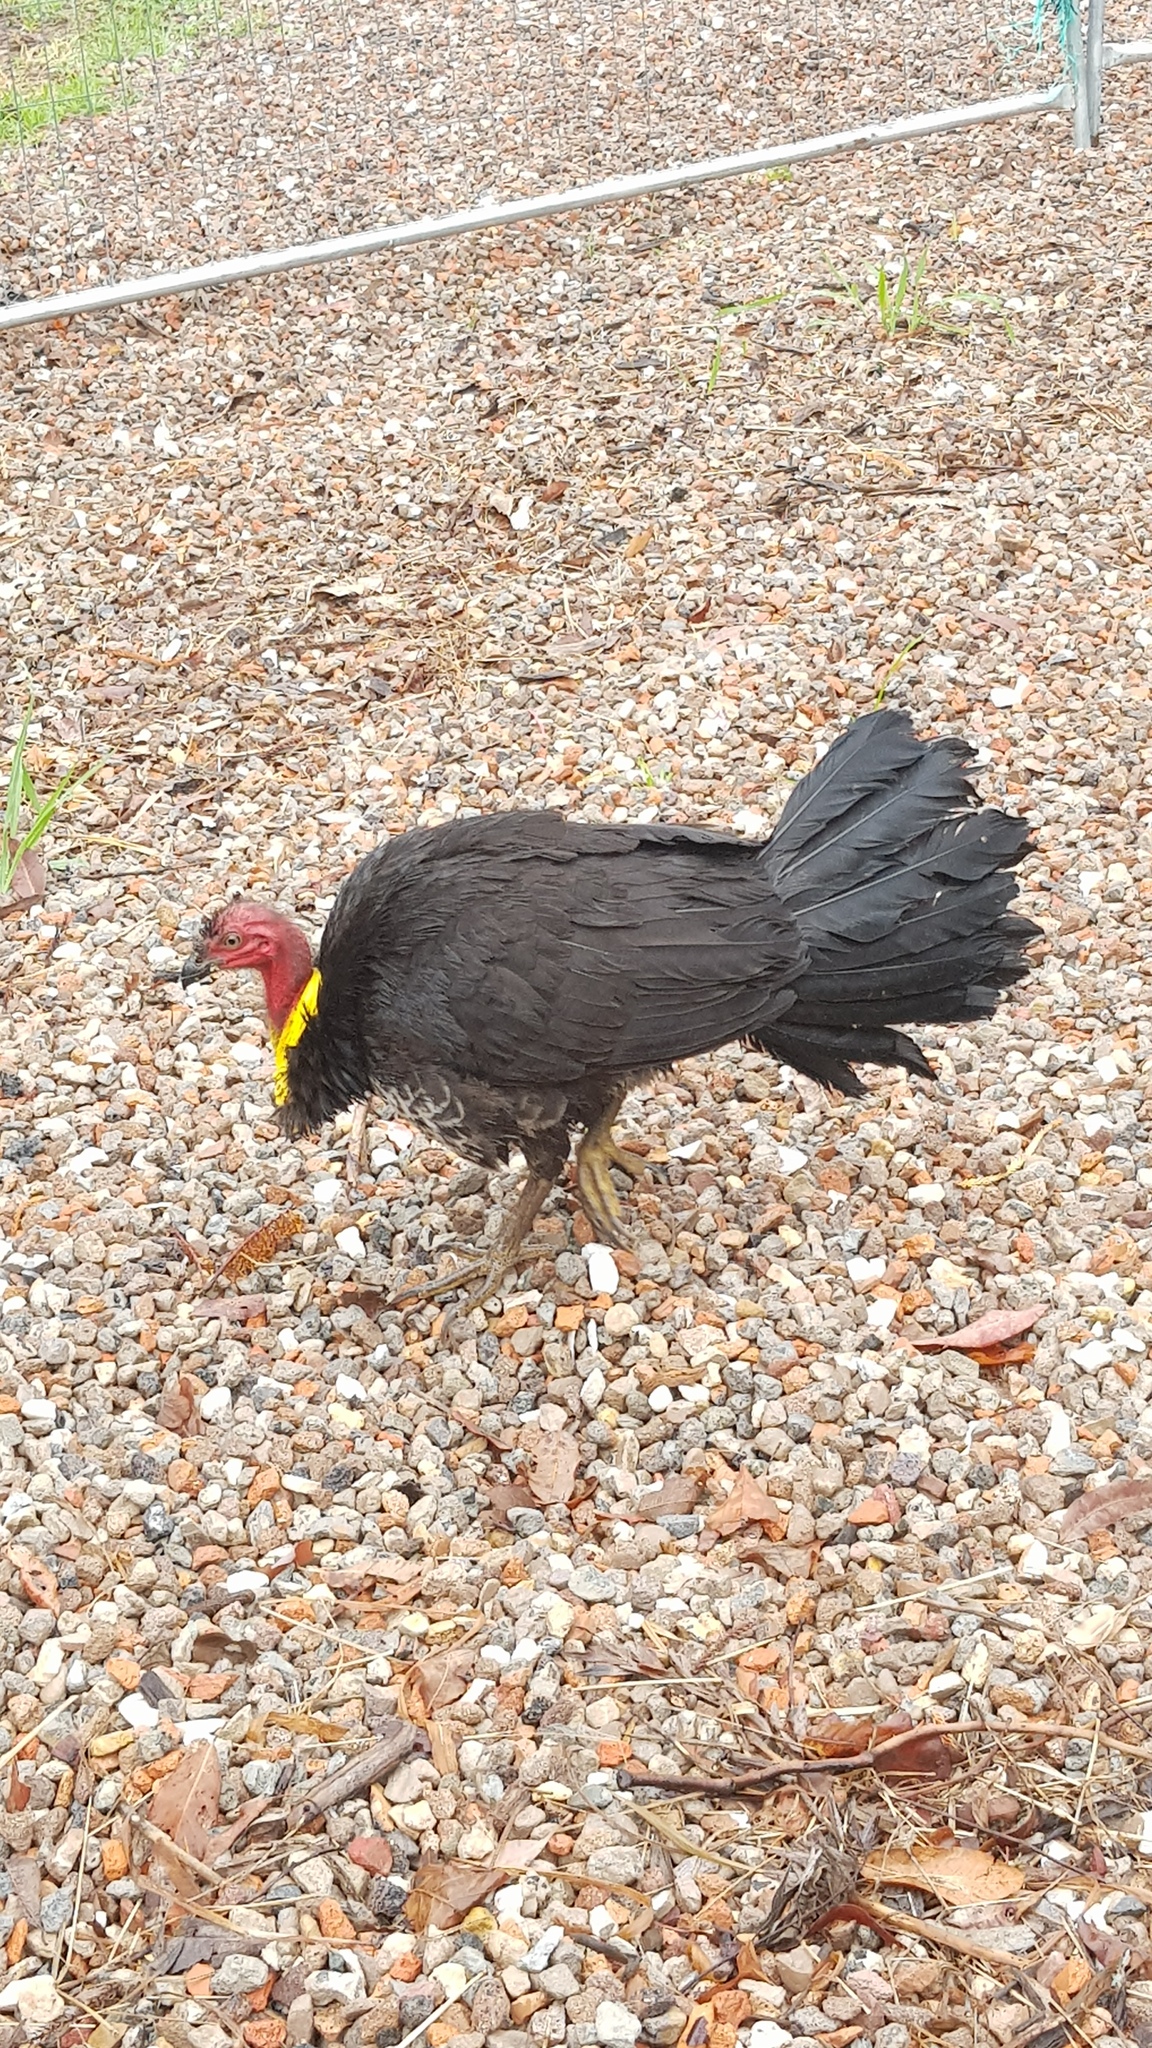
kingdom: Animalia
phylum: Chordata
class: Aves
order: Galliformes
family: Megapodiidae
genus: Alectura
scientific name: Alectura lathami
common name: Australian brushturkey
